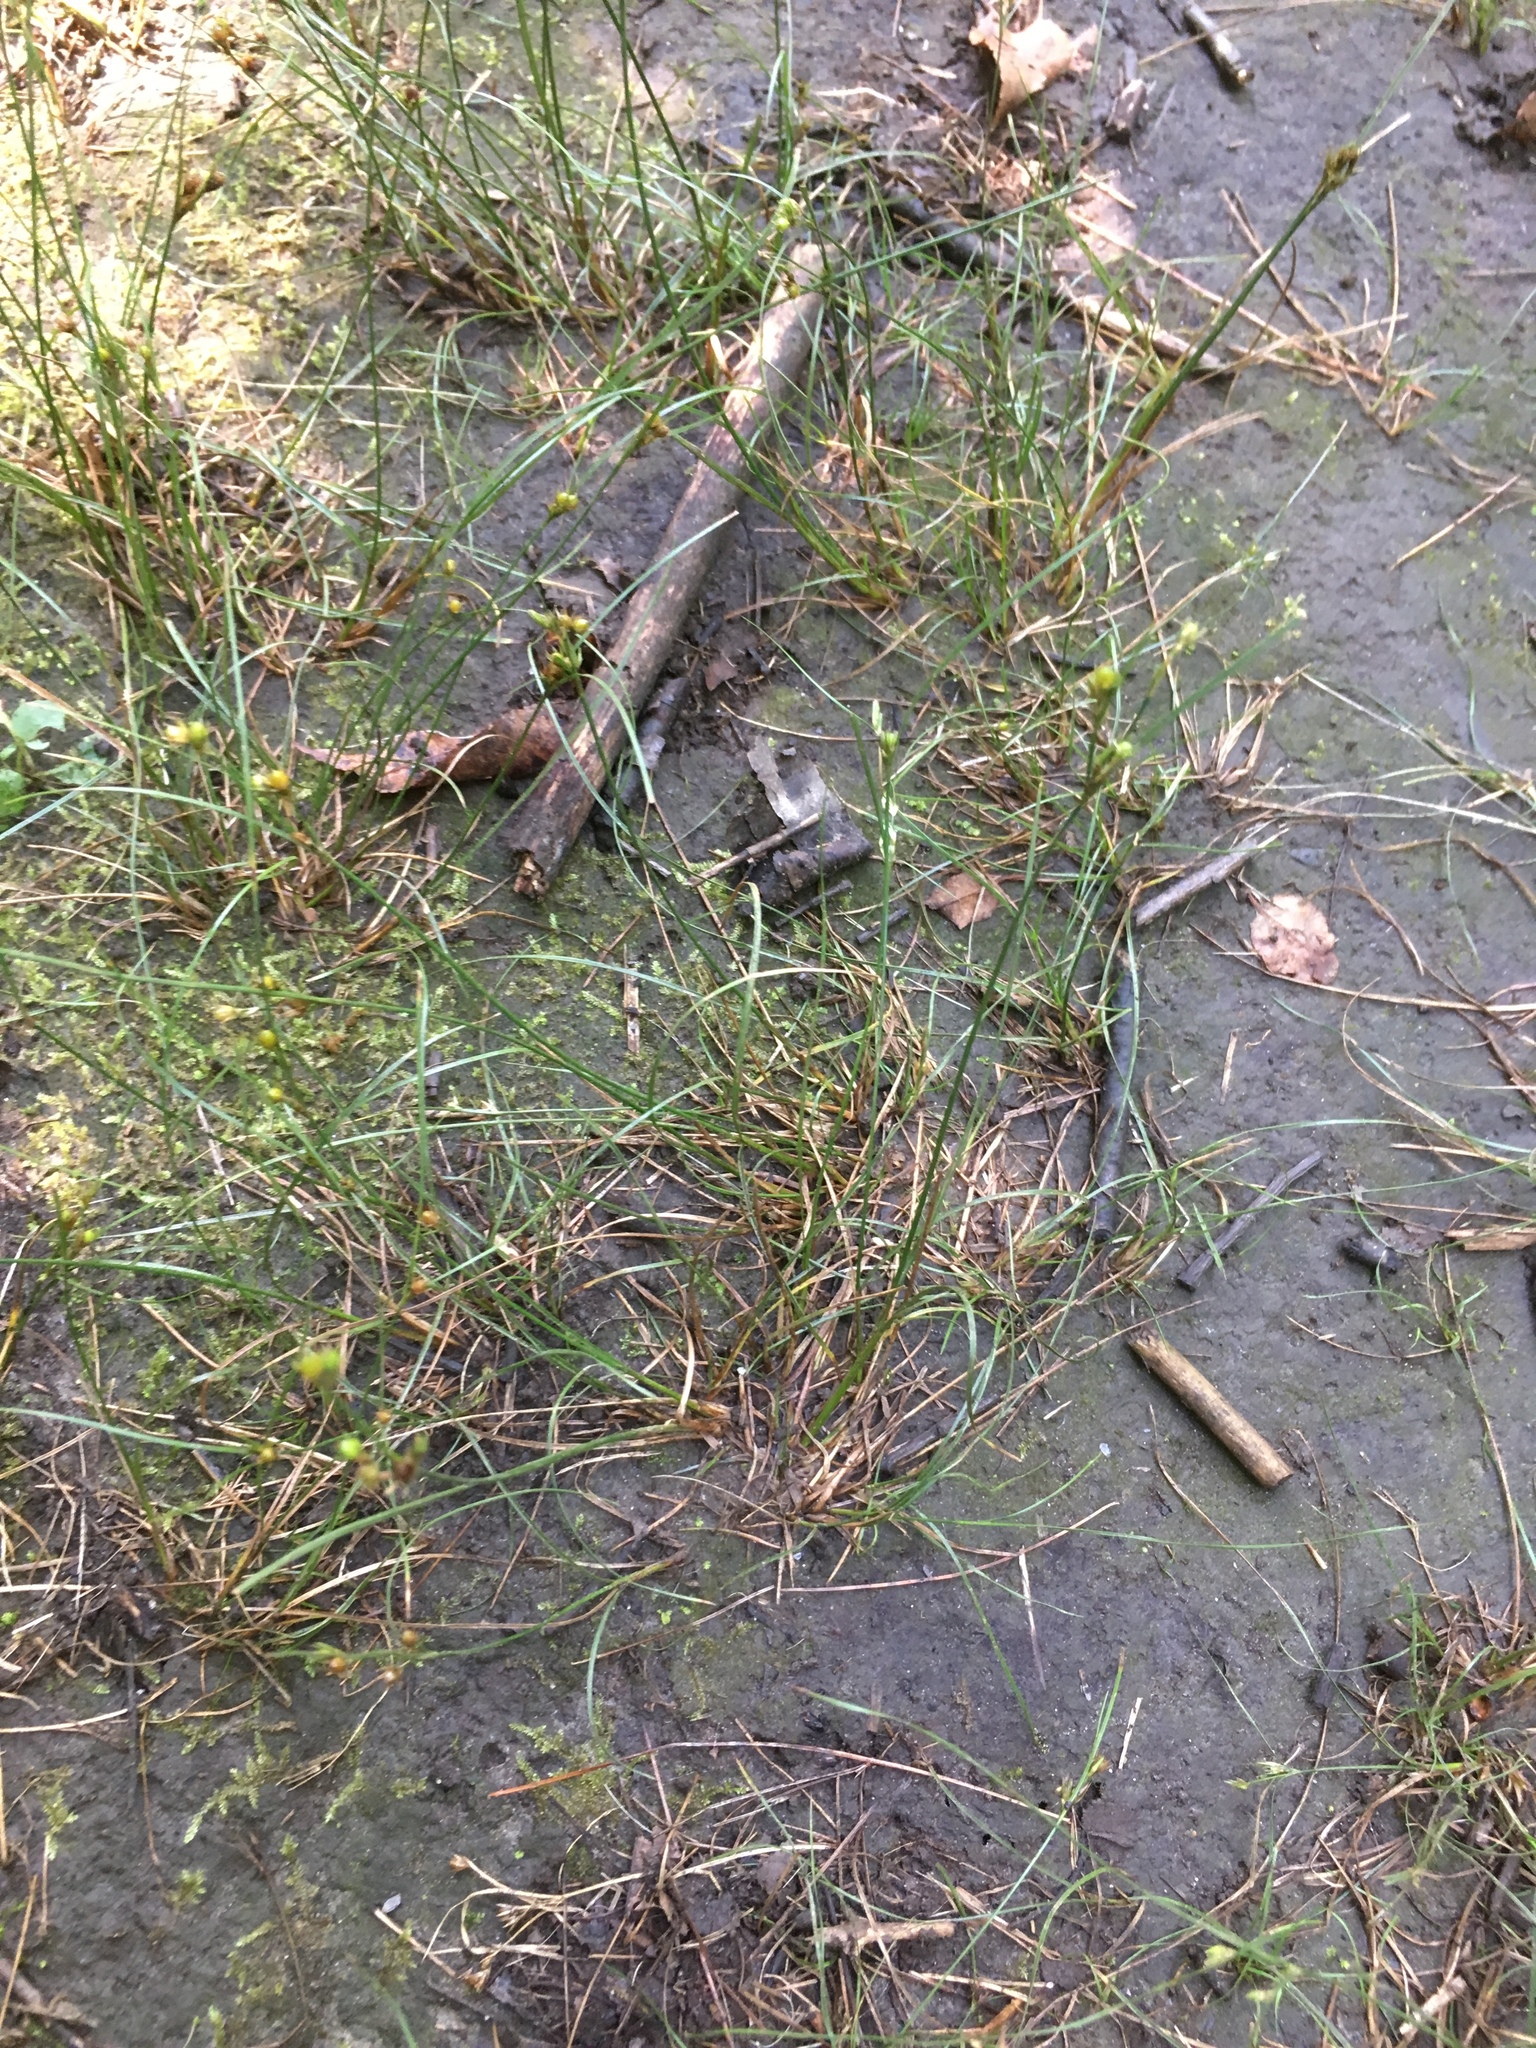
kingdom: Plantae
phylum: Tracheophyta
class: Liliopsida
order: Poales
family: Juncaceae
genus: Juncus
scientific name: Juncus tenuis
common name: Slender rush
